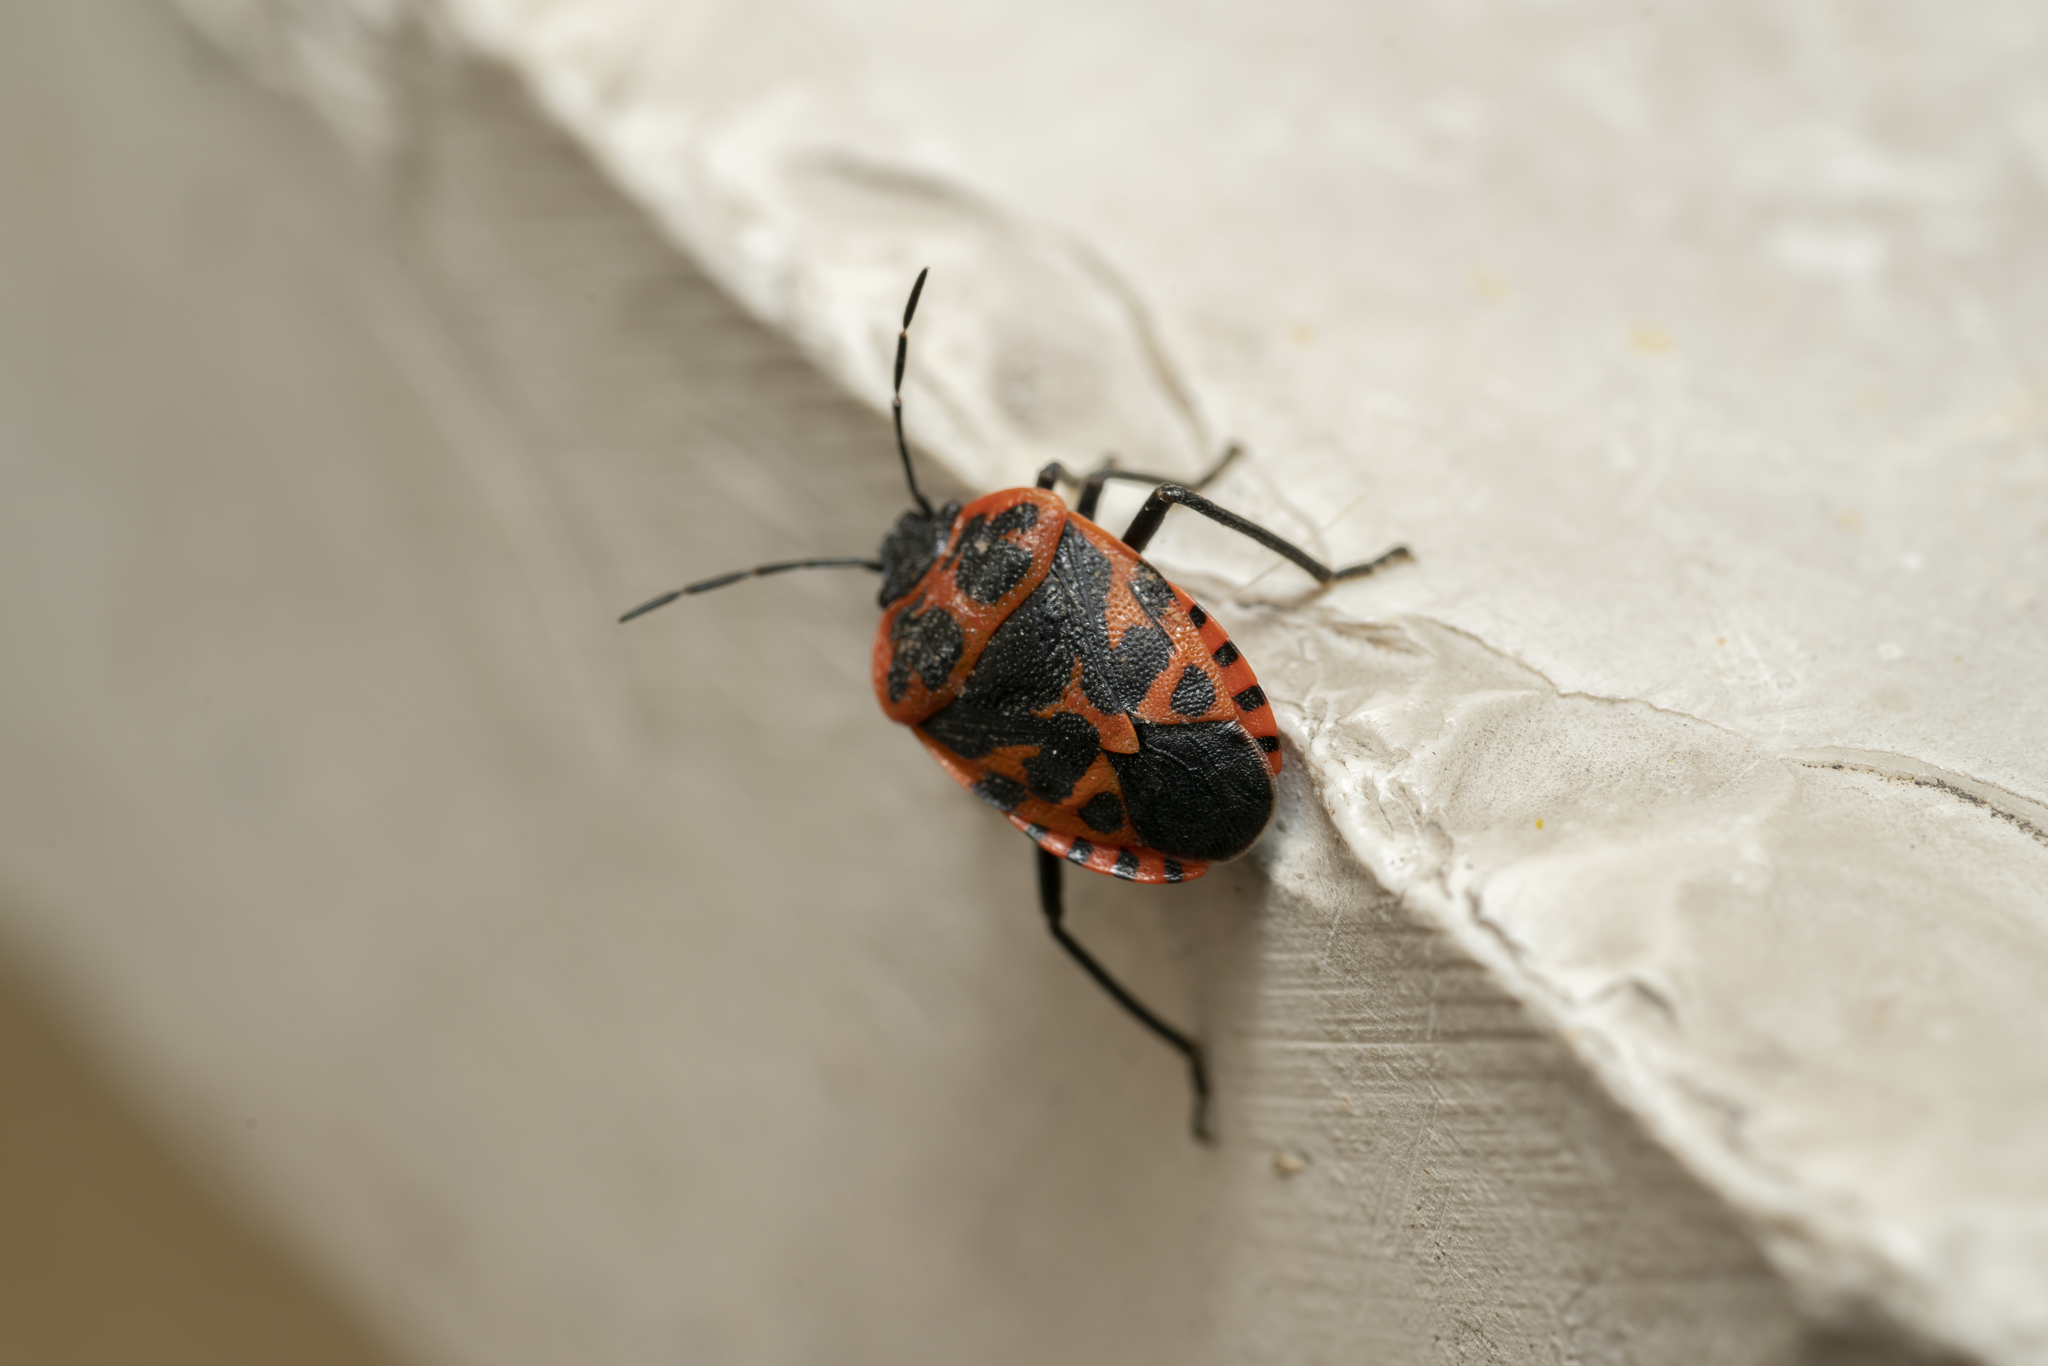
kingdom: Animalia
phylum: Arthropoda
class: Insecta
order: Hemiptera
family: Pentatomidae
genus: Eurydema
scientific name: Eurydema eckerleini
